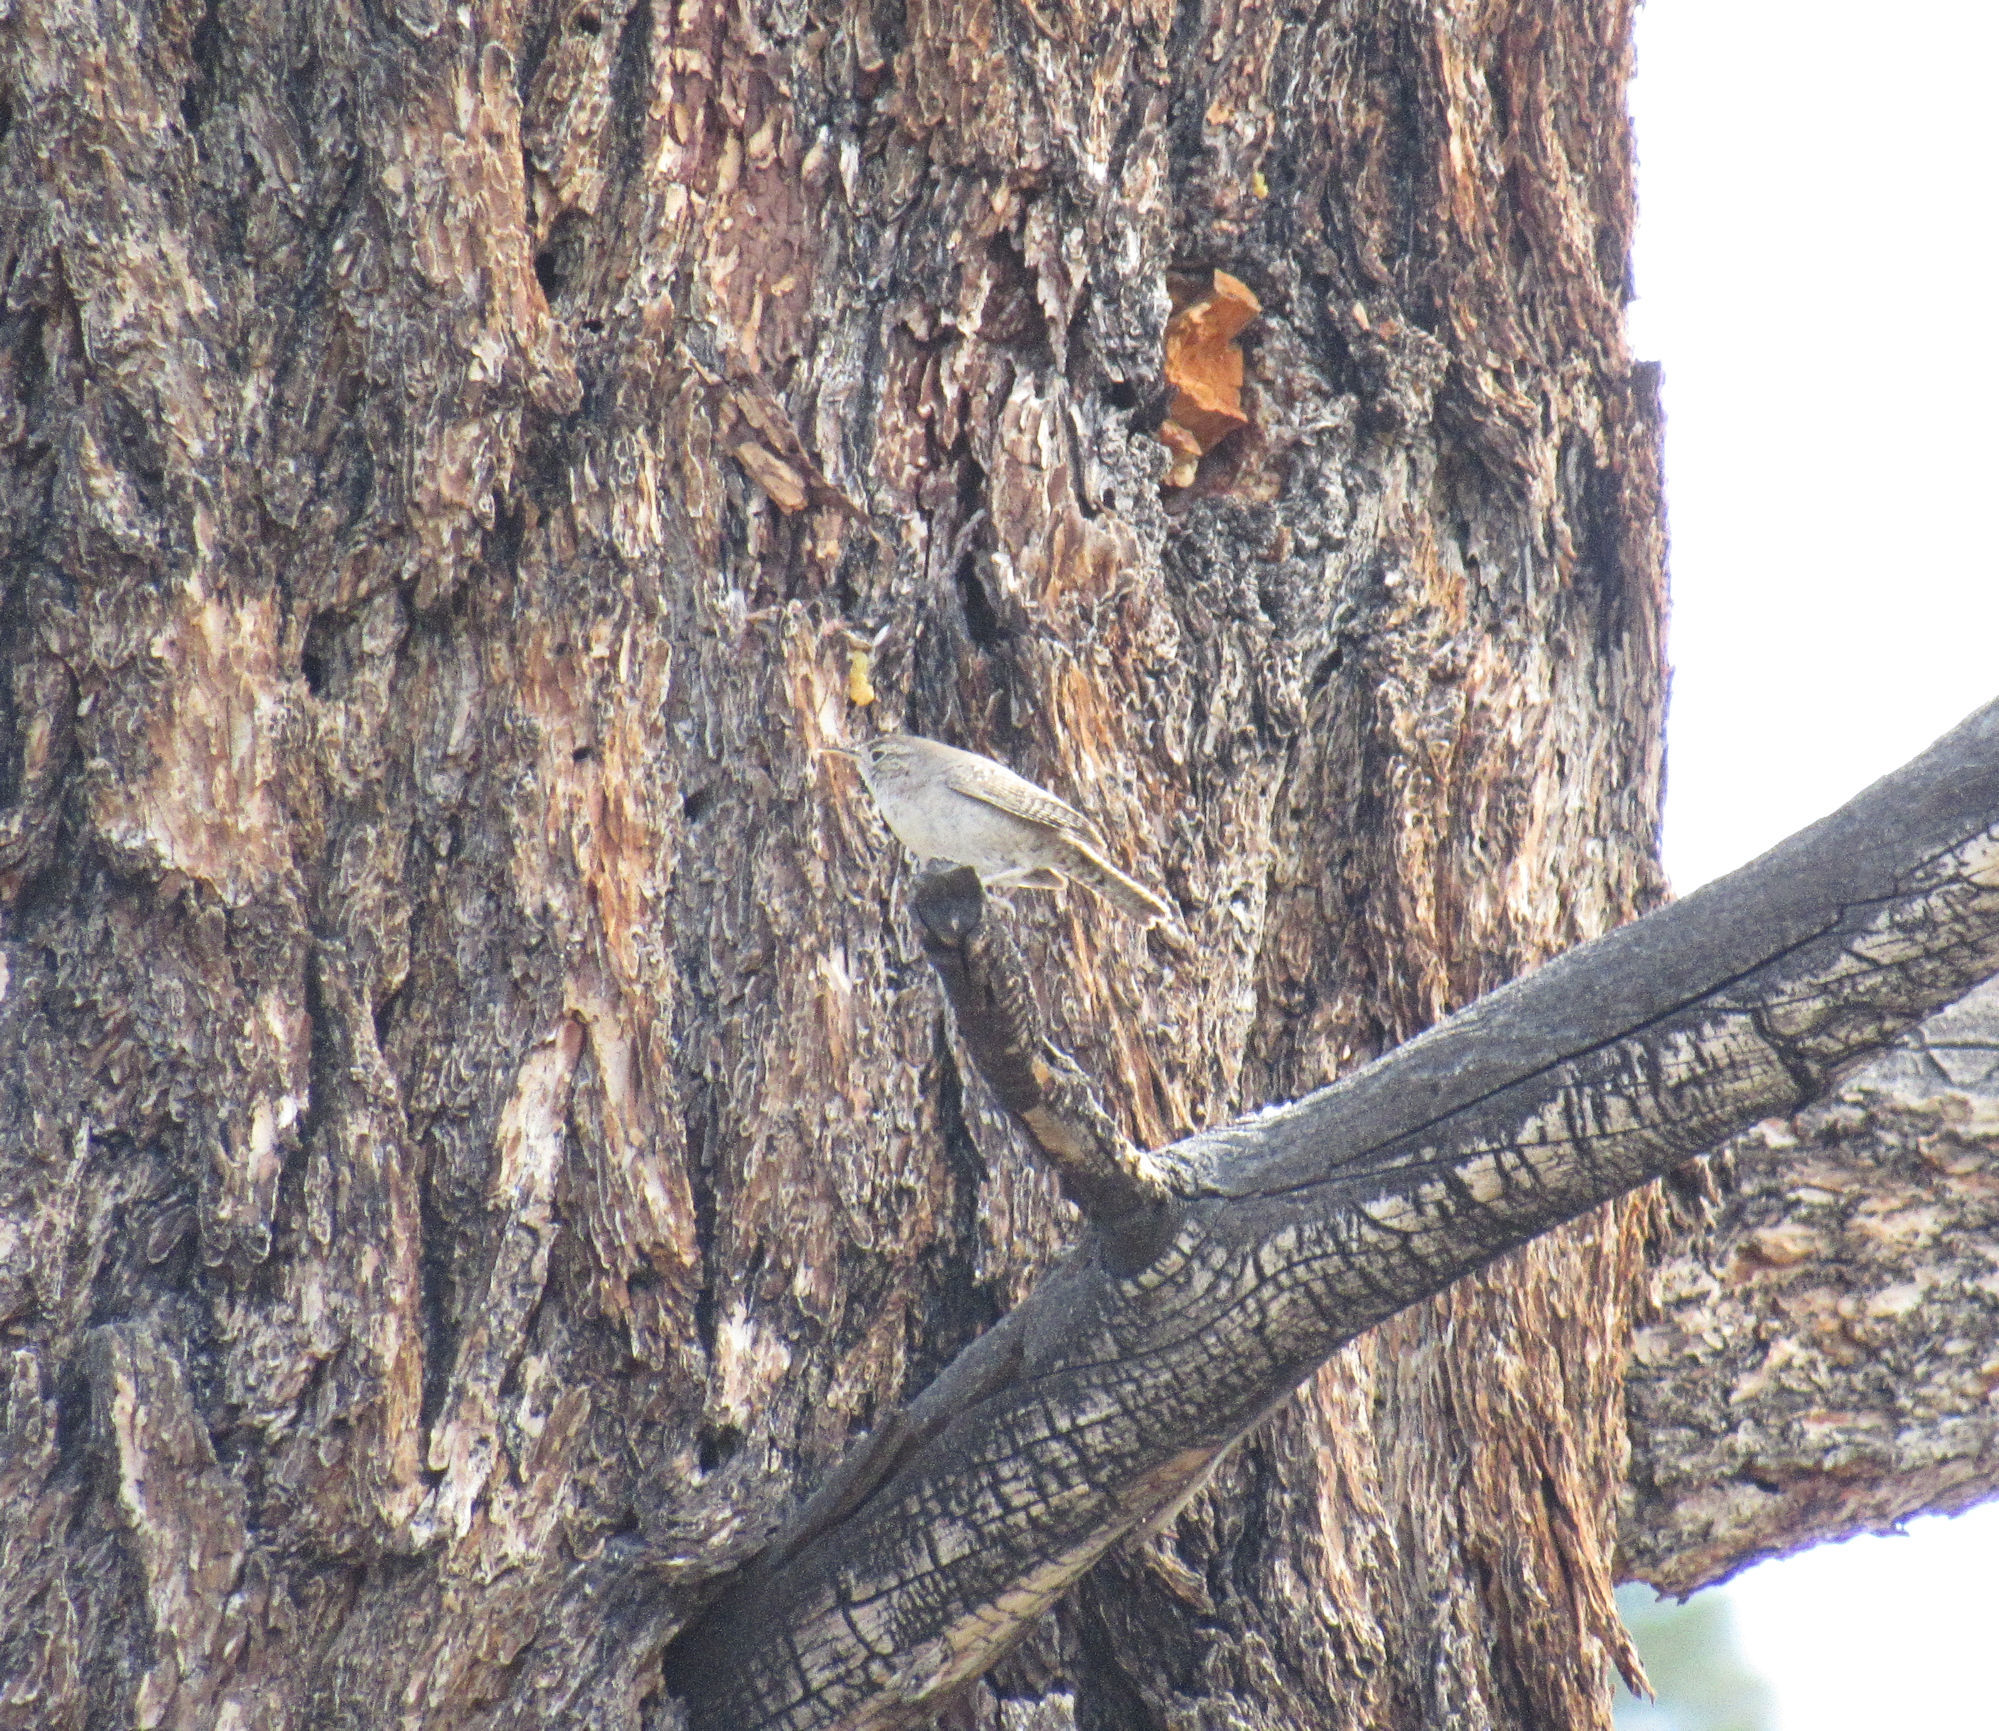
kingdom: Animalia
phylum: Chordata
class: Aves
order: Passeriformes
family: Troglodytidae
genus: Troglodytes
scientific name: Troglodytes aedon
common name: House wren
